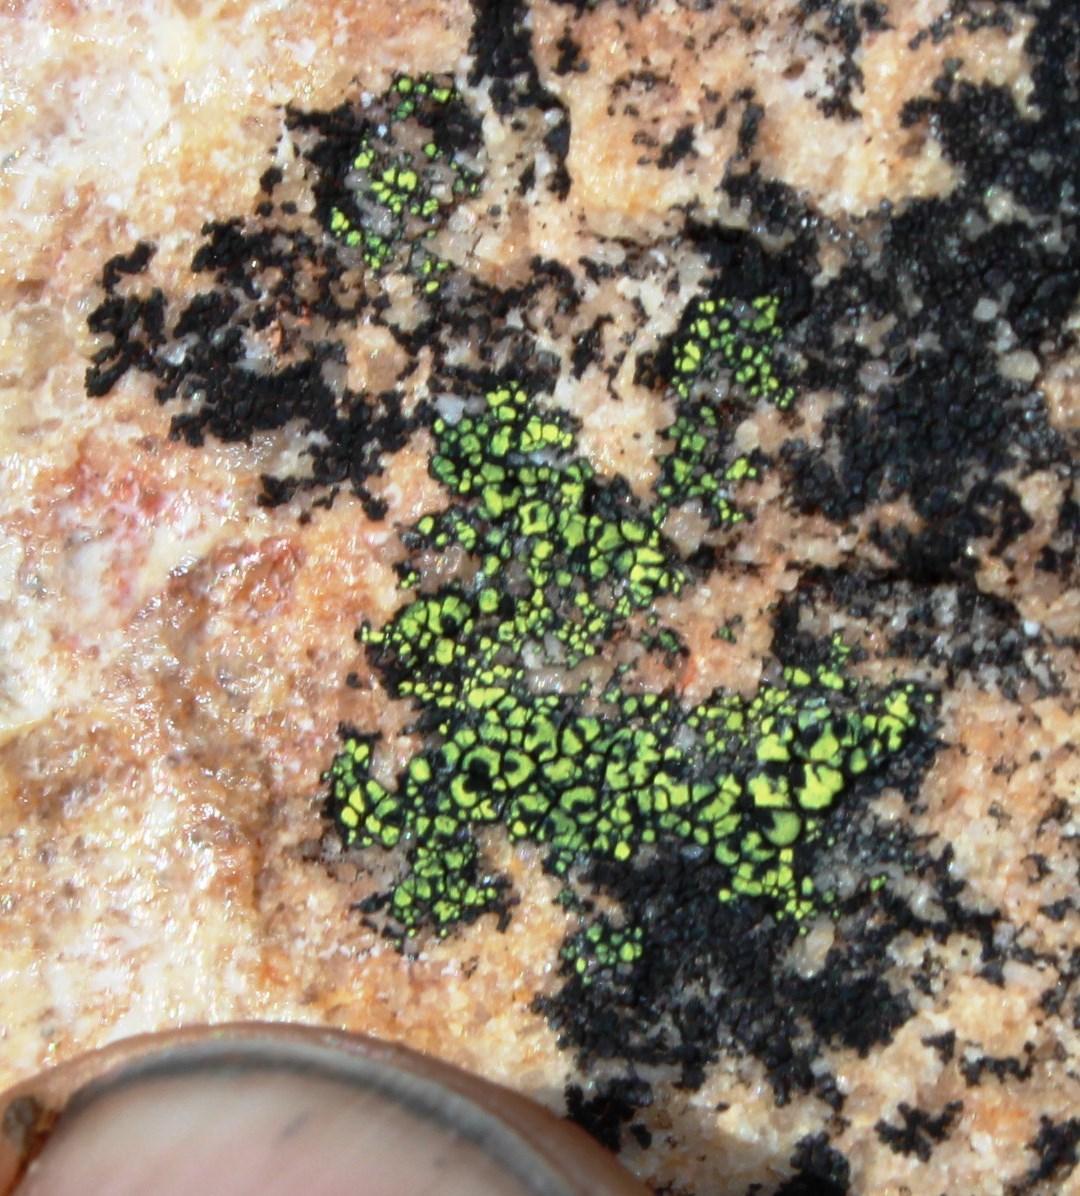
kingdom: Fungi
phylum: Ascomycota
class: Lecanoromycetes
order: Rhizocarpales
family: Rhizocarpaceae
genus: Rhizocarpon
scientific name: Rhizocarpon lecanorinum
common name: Crescent map lichen
